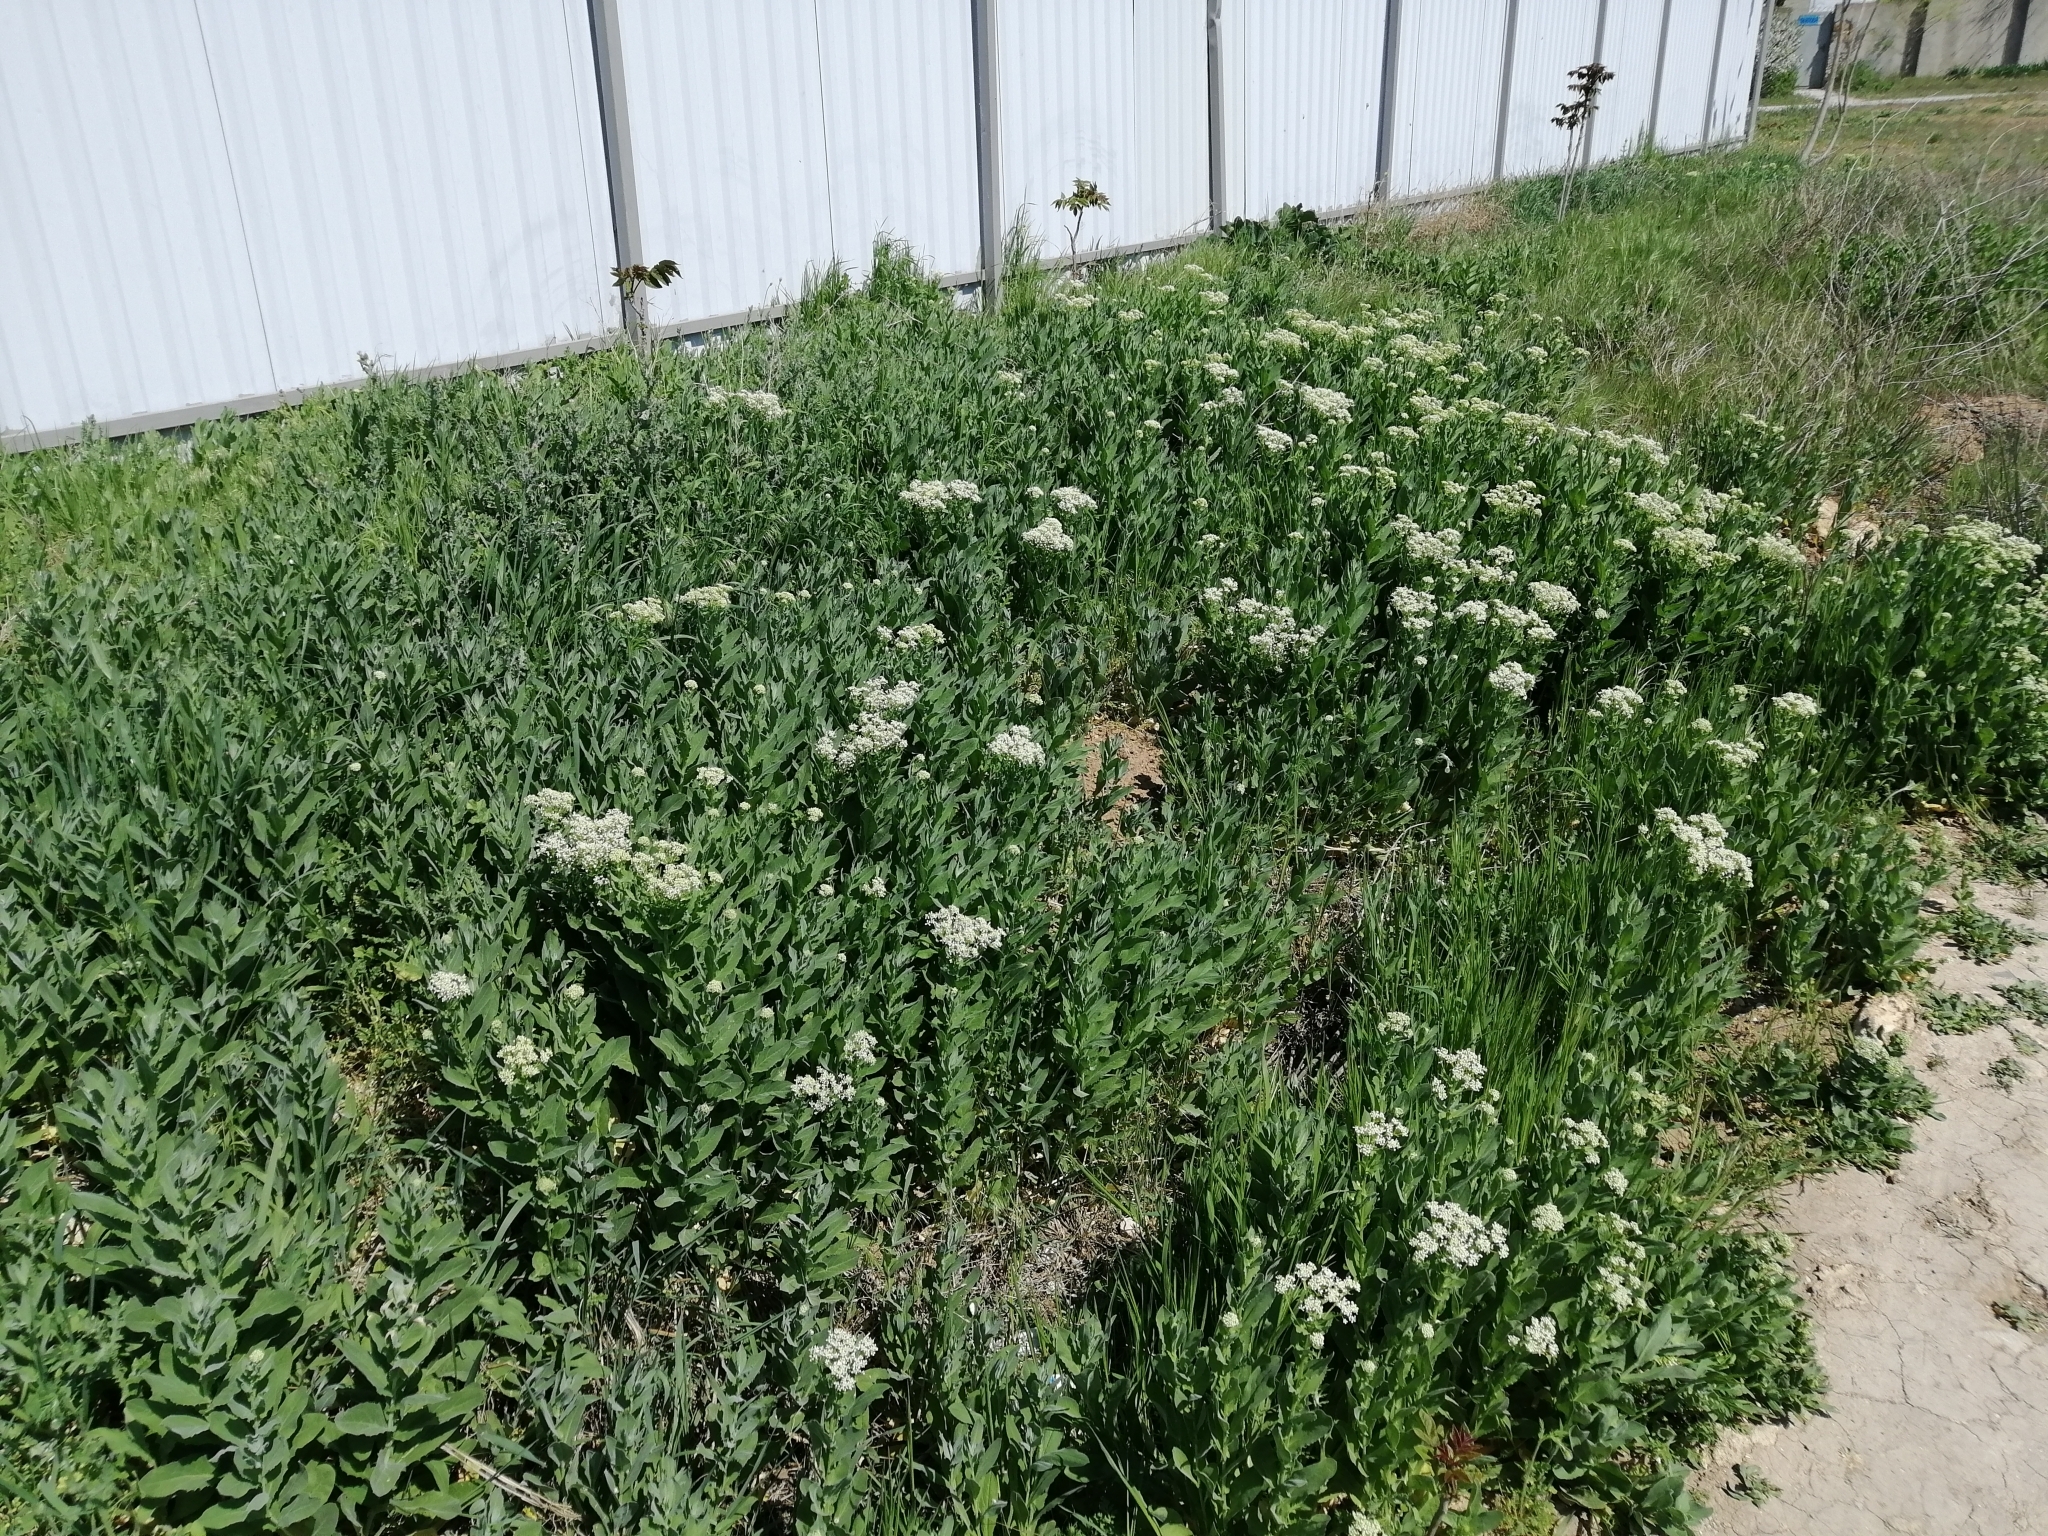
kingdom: Plantae
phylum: Tracheophyta
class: Magnoliopsida
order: Brassicales
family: Brassicaceae
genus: Lepidium
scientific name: Lepidium draba
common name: Hoary cress
